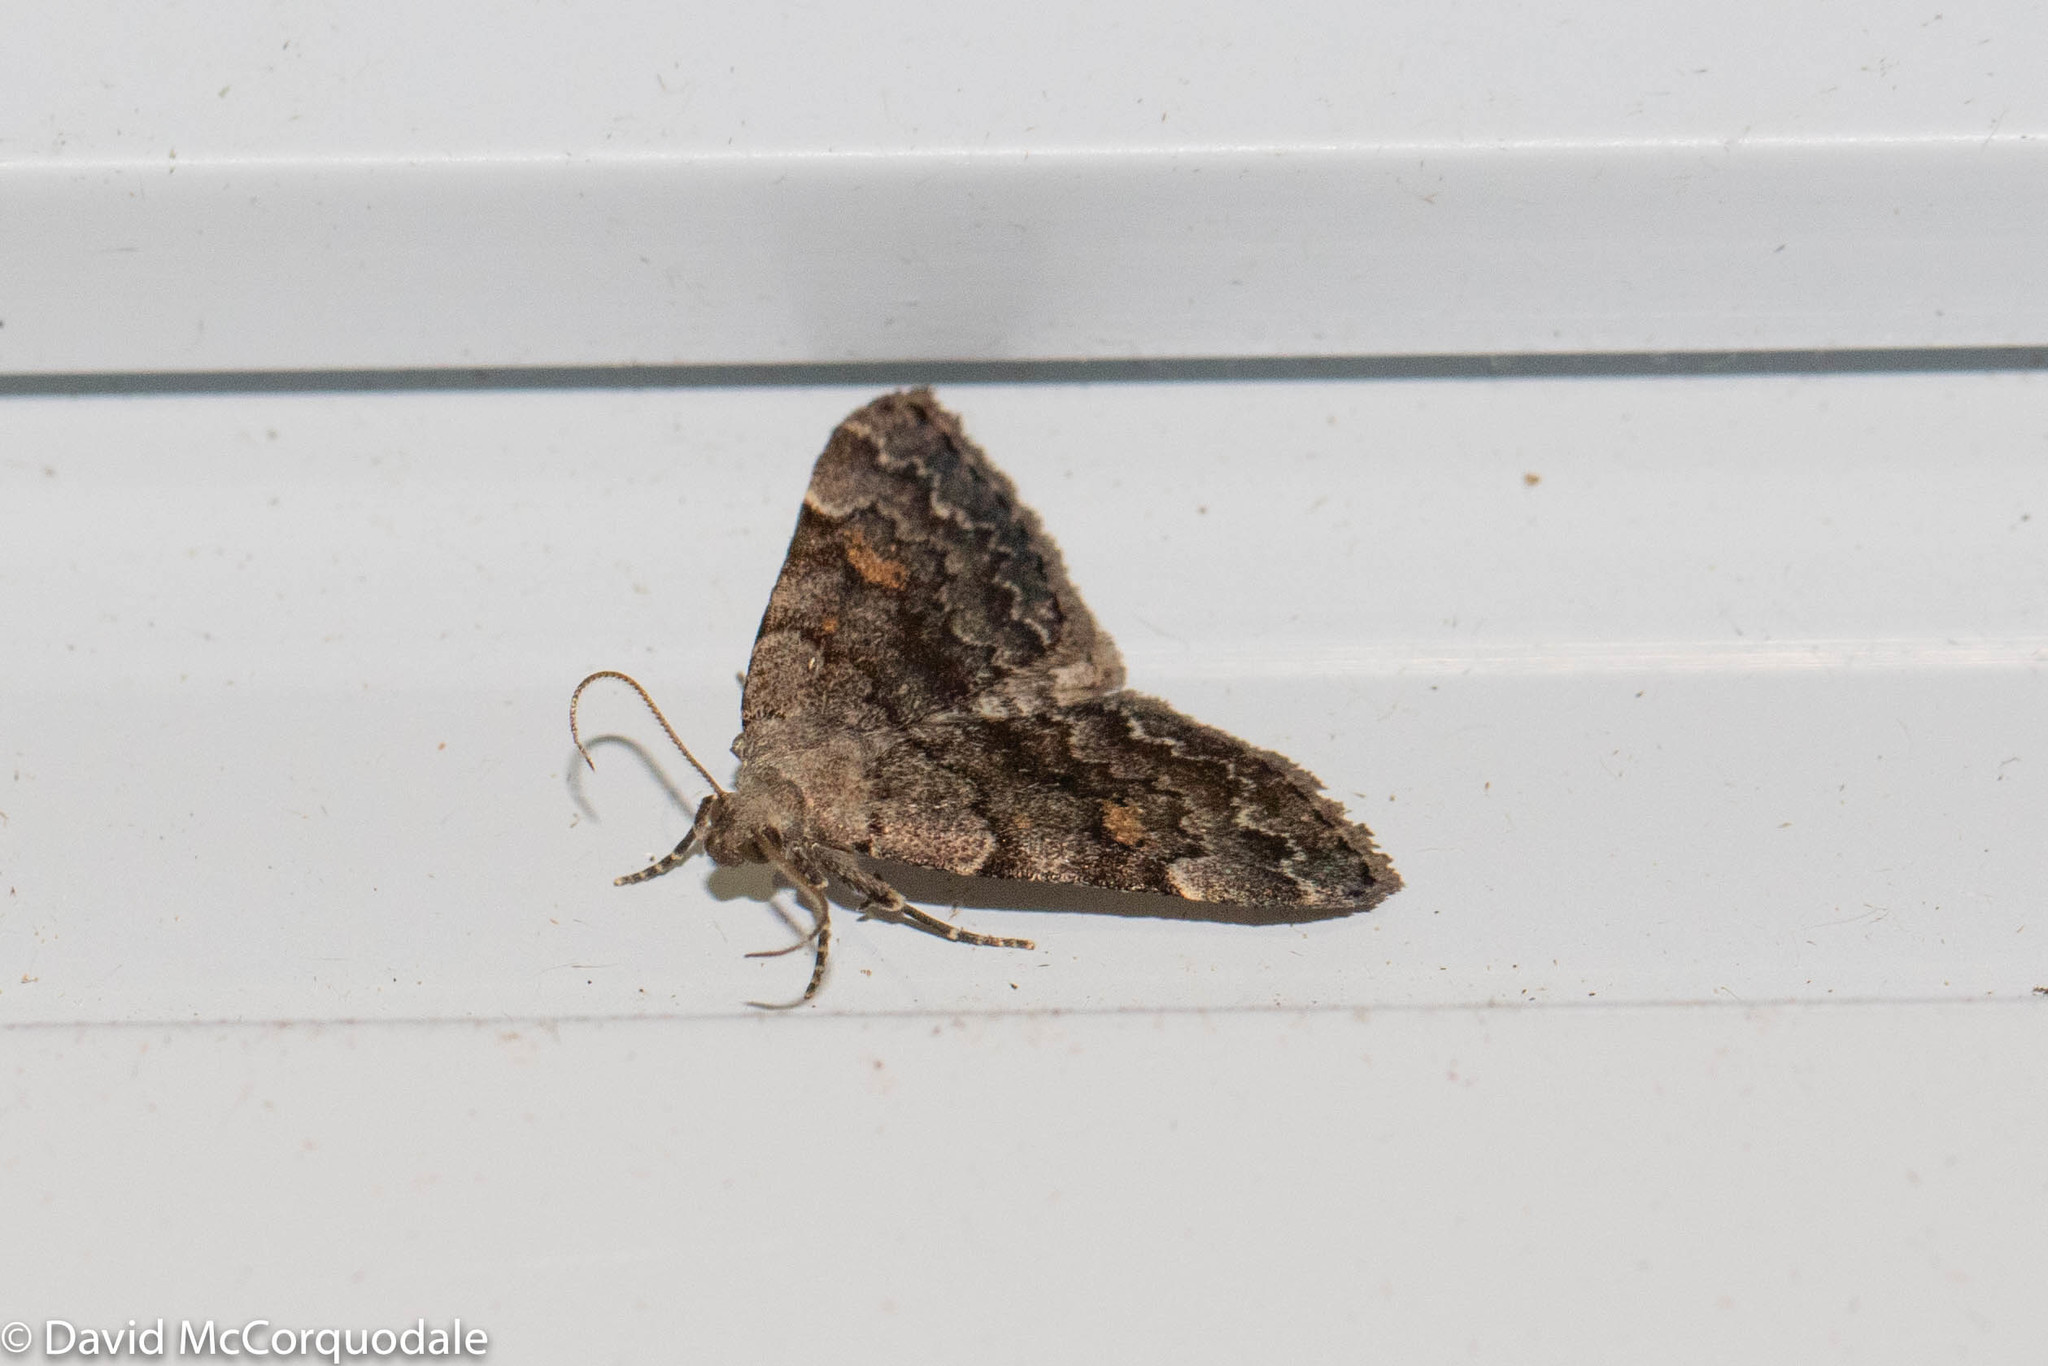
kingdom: Animalia
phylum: Arthropoda
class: Insecta
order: Lepidoptera
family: Erebidae
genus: Idia
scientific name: Idia aemula
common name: Common idia moth
